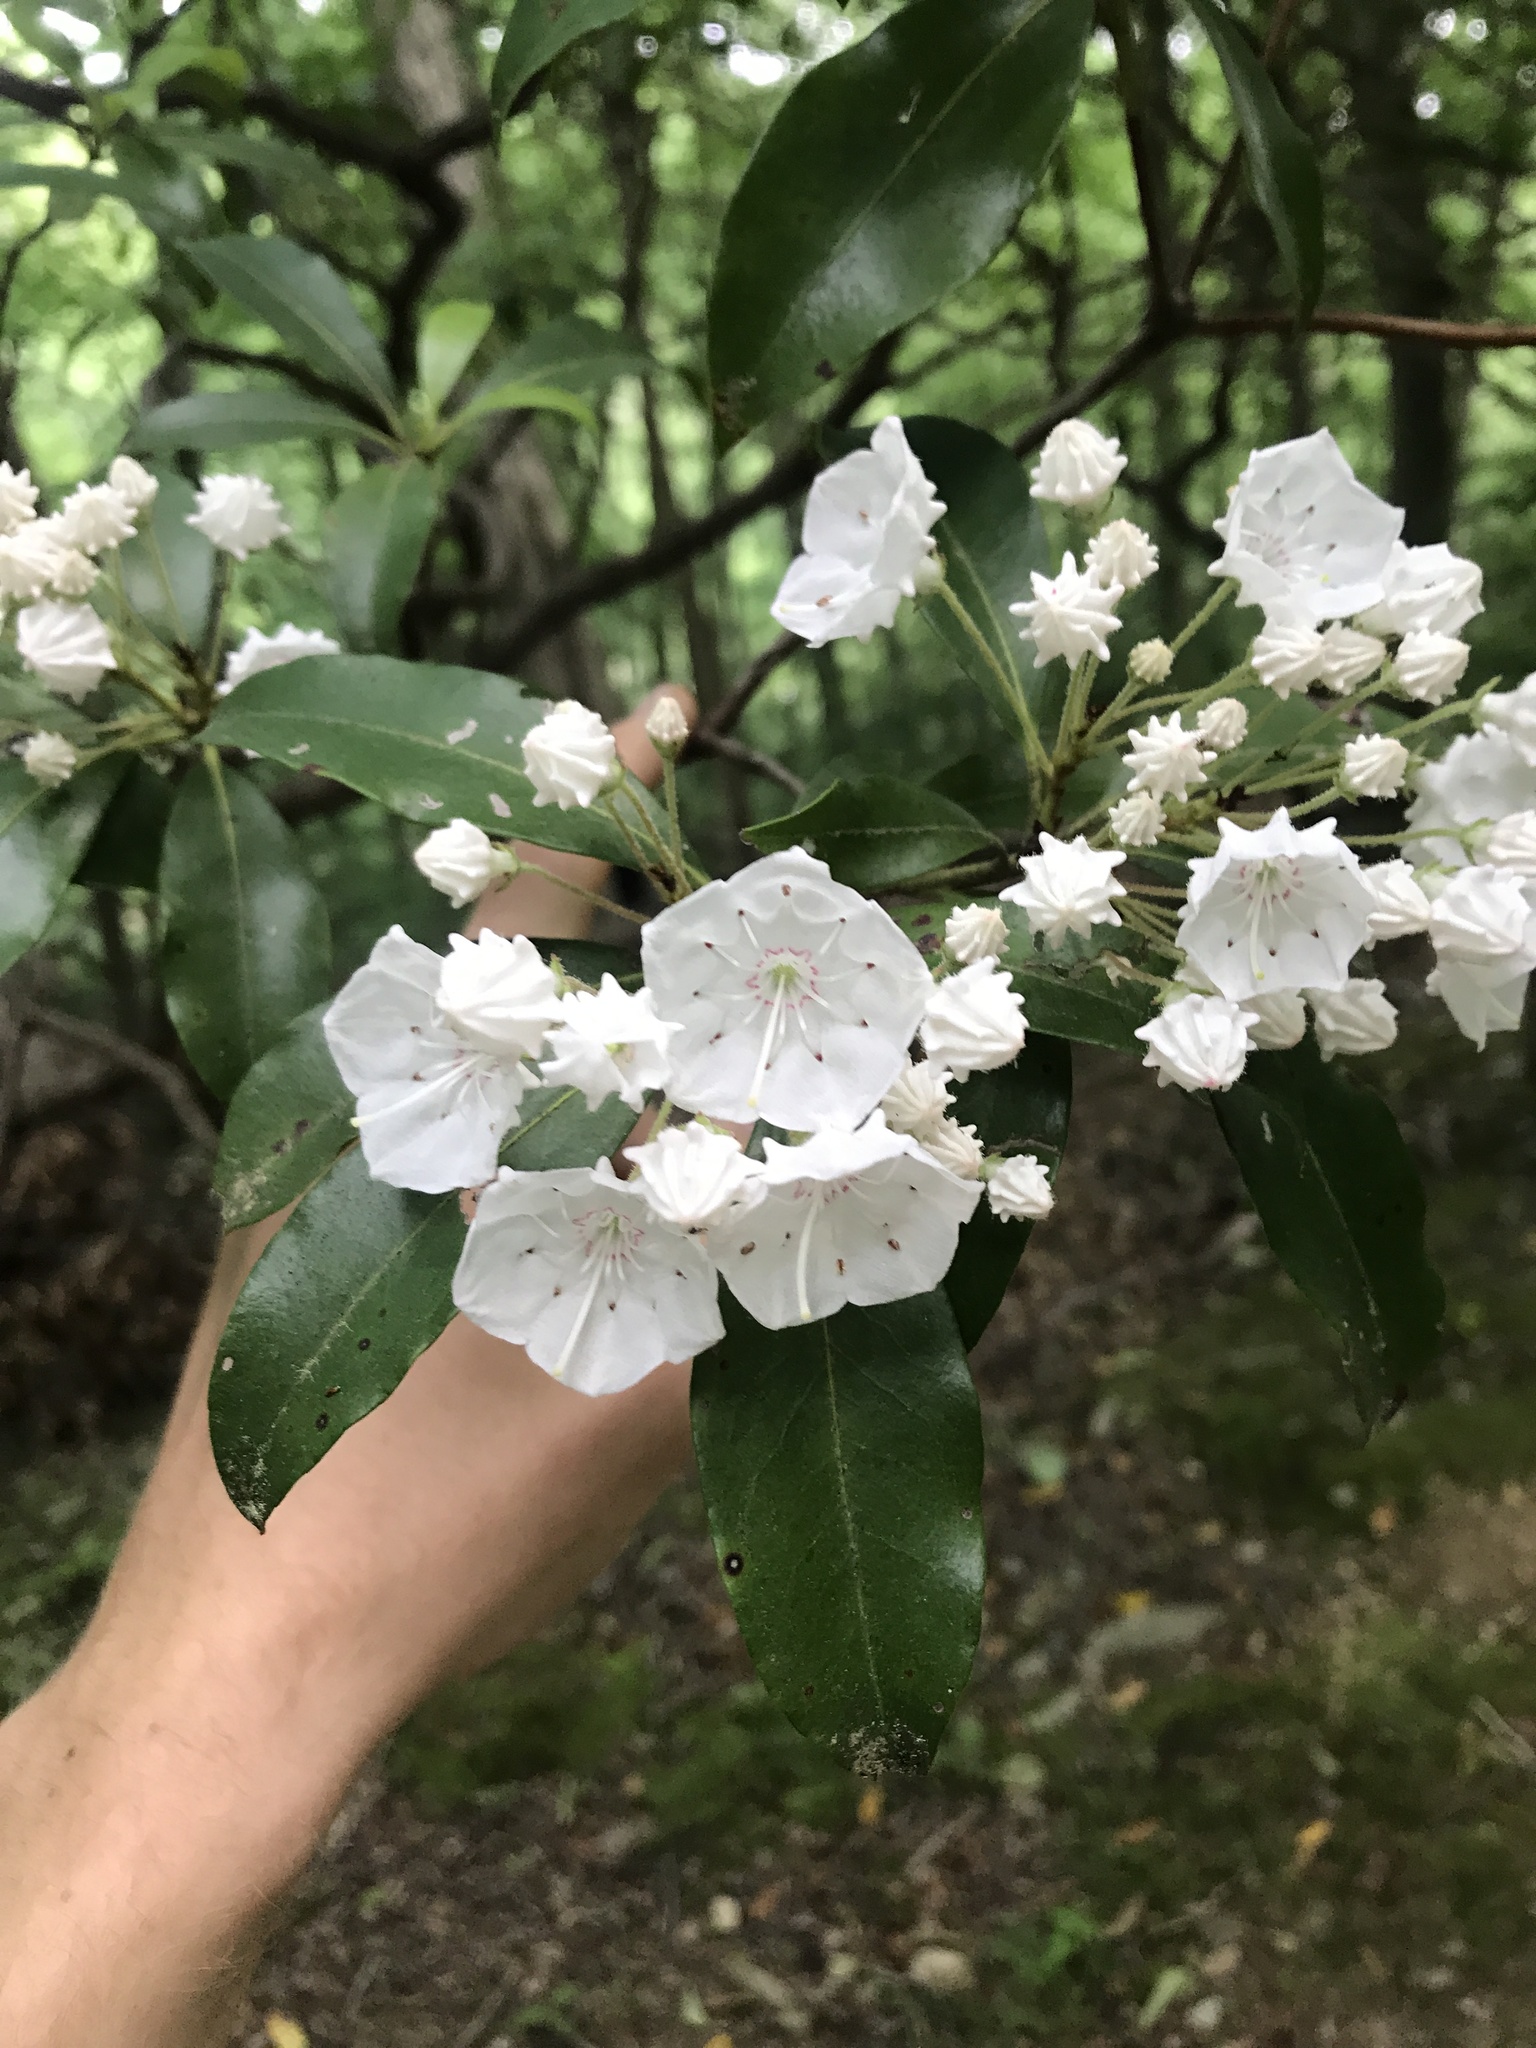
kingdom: Plantae
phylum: Tracheophyta
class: Magnoliopsida
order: Ericales
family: Ericaceae
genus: Kalmia
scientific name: Kalmia latifolia
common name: Mountain-laurel
